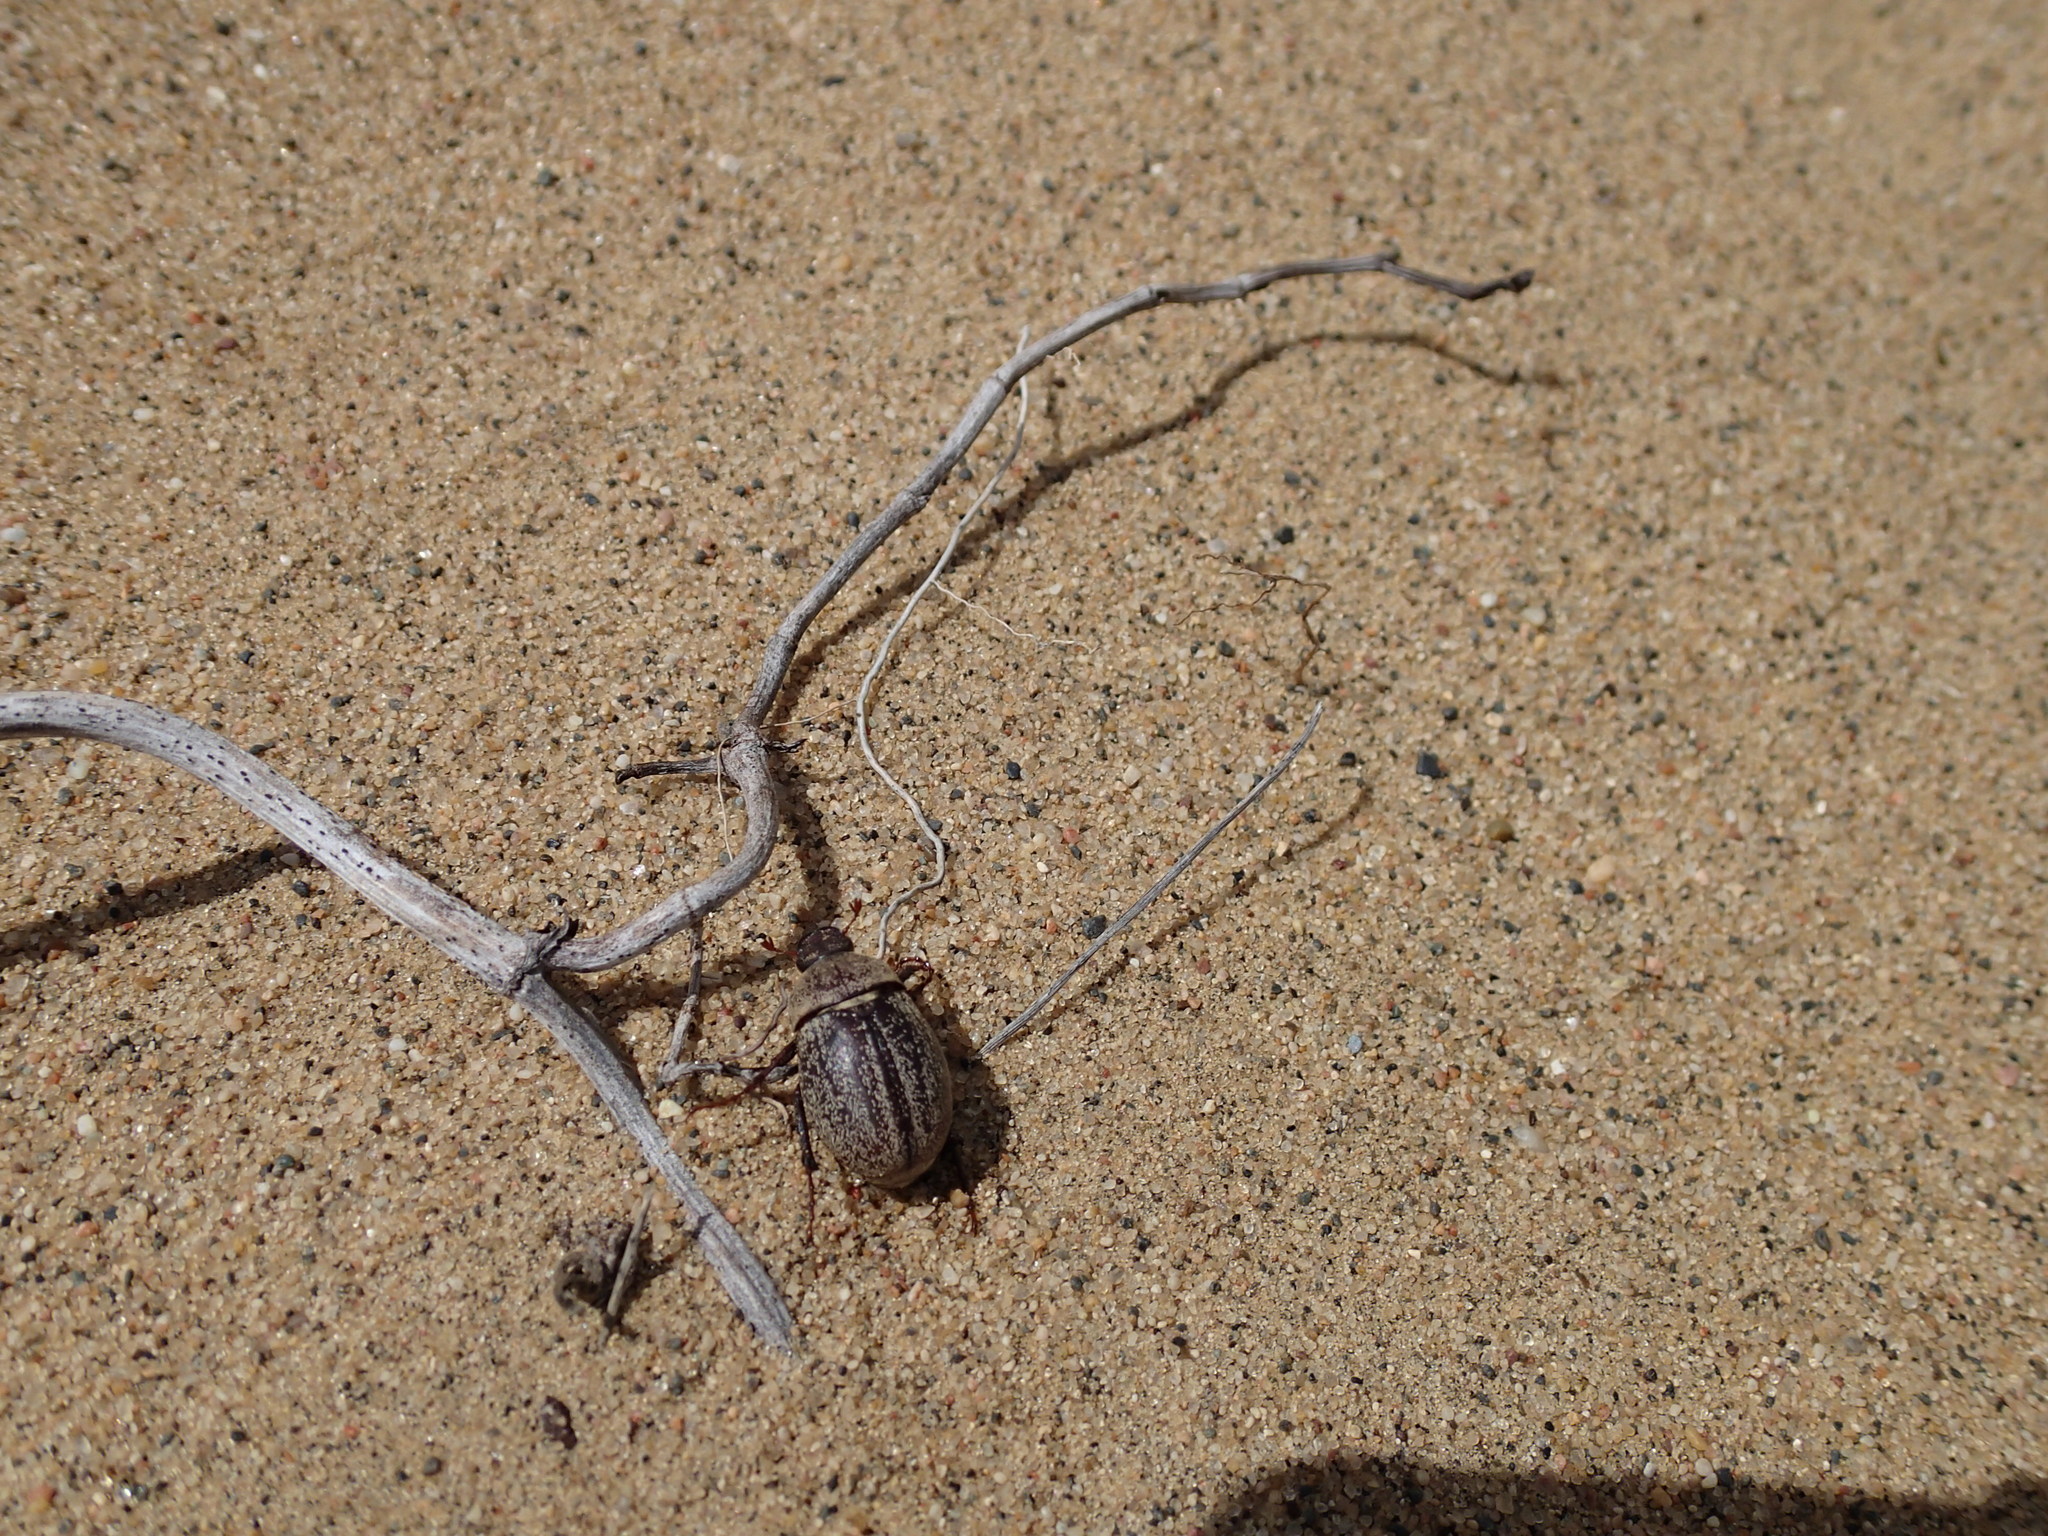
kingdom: Animalia
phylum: Arthropoda
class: Insecta
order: Coleoptera
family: Scarabaeidae
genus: Phyllophaga
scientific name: Phyllophaga lanceolata
